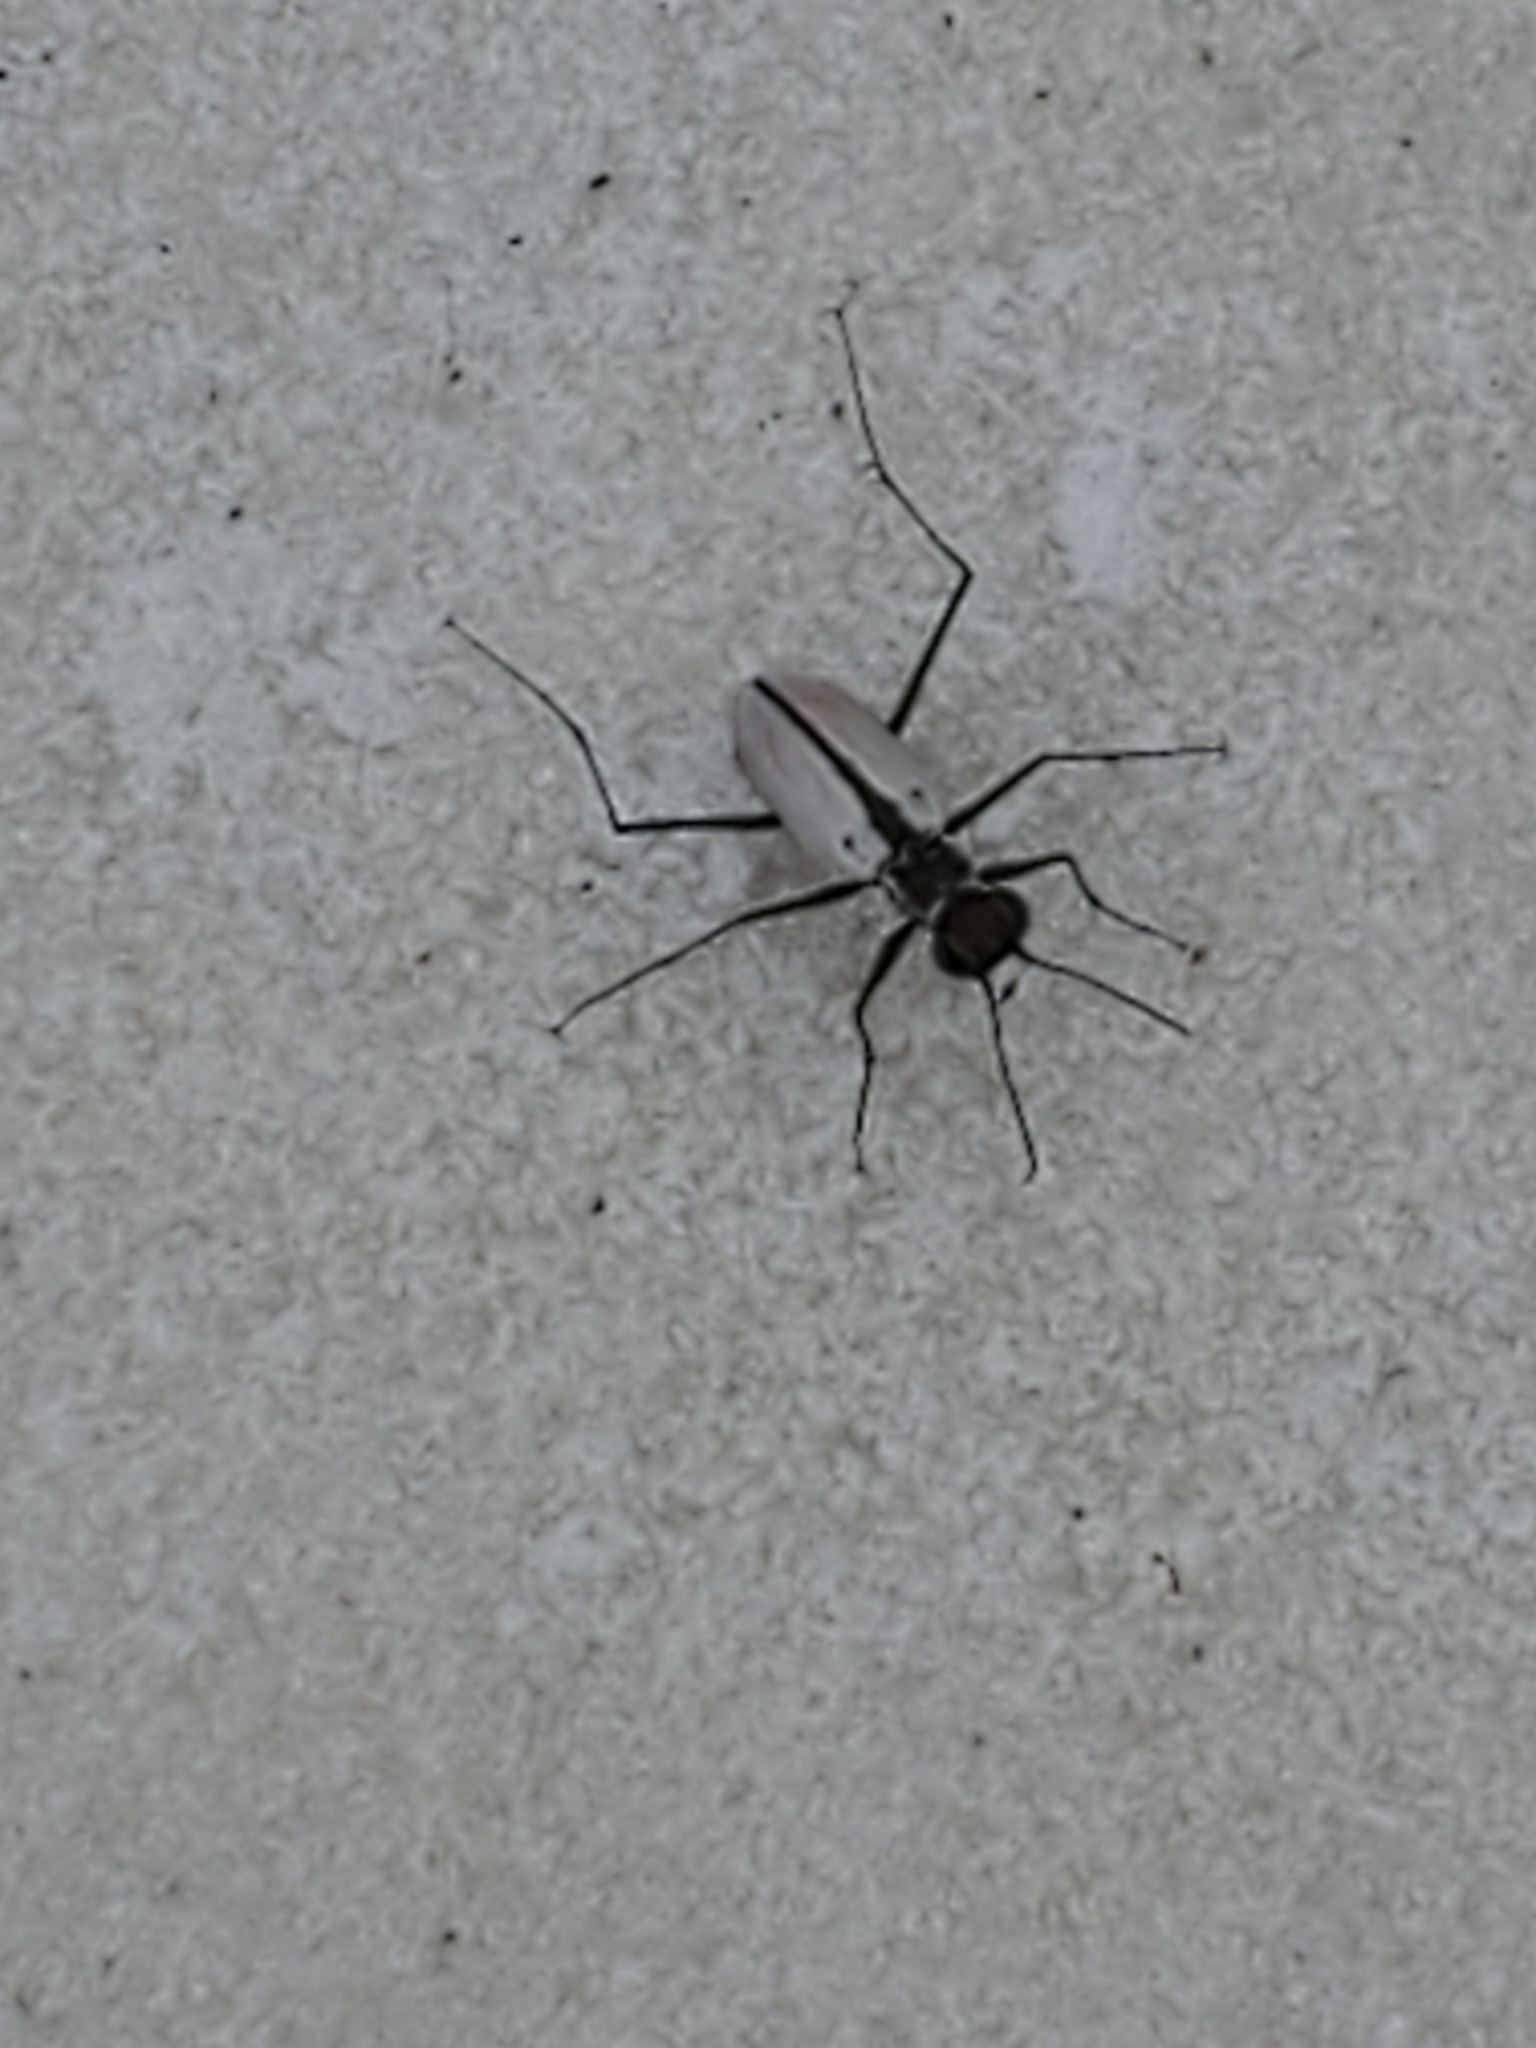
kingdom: Animalia
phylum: Arthropoda
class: Insecta
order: Coleoptera
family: Carabidae
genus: Habroscelimorpha
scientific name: Habroscelimorpha dorsalis
